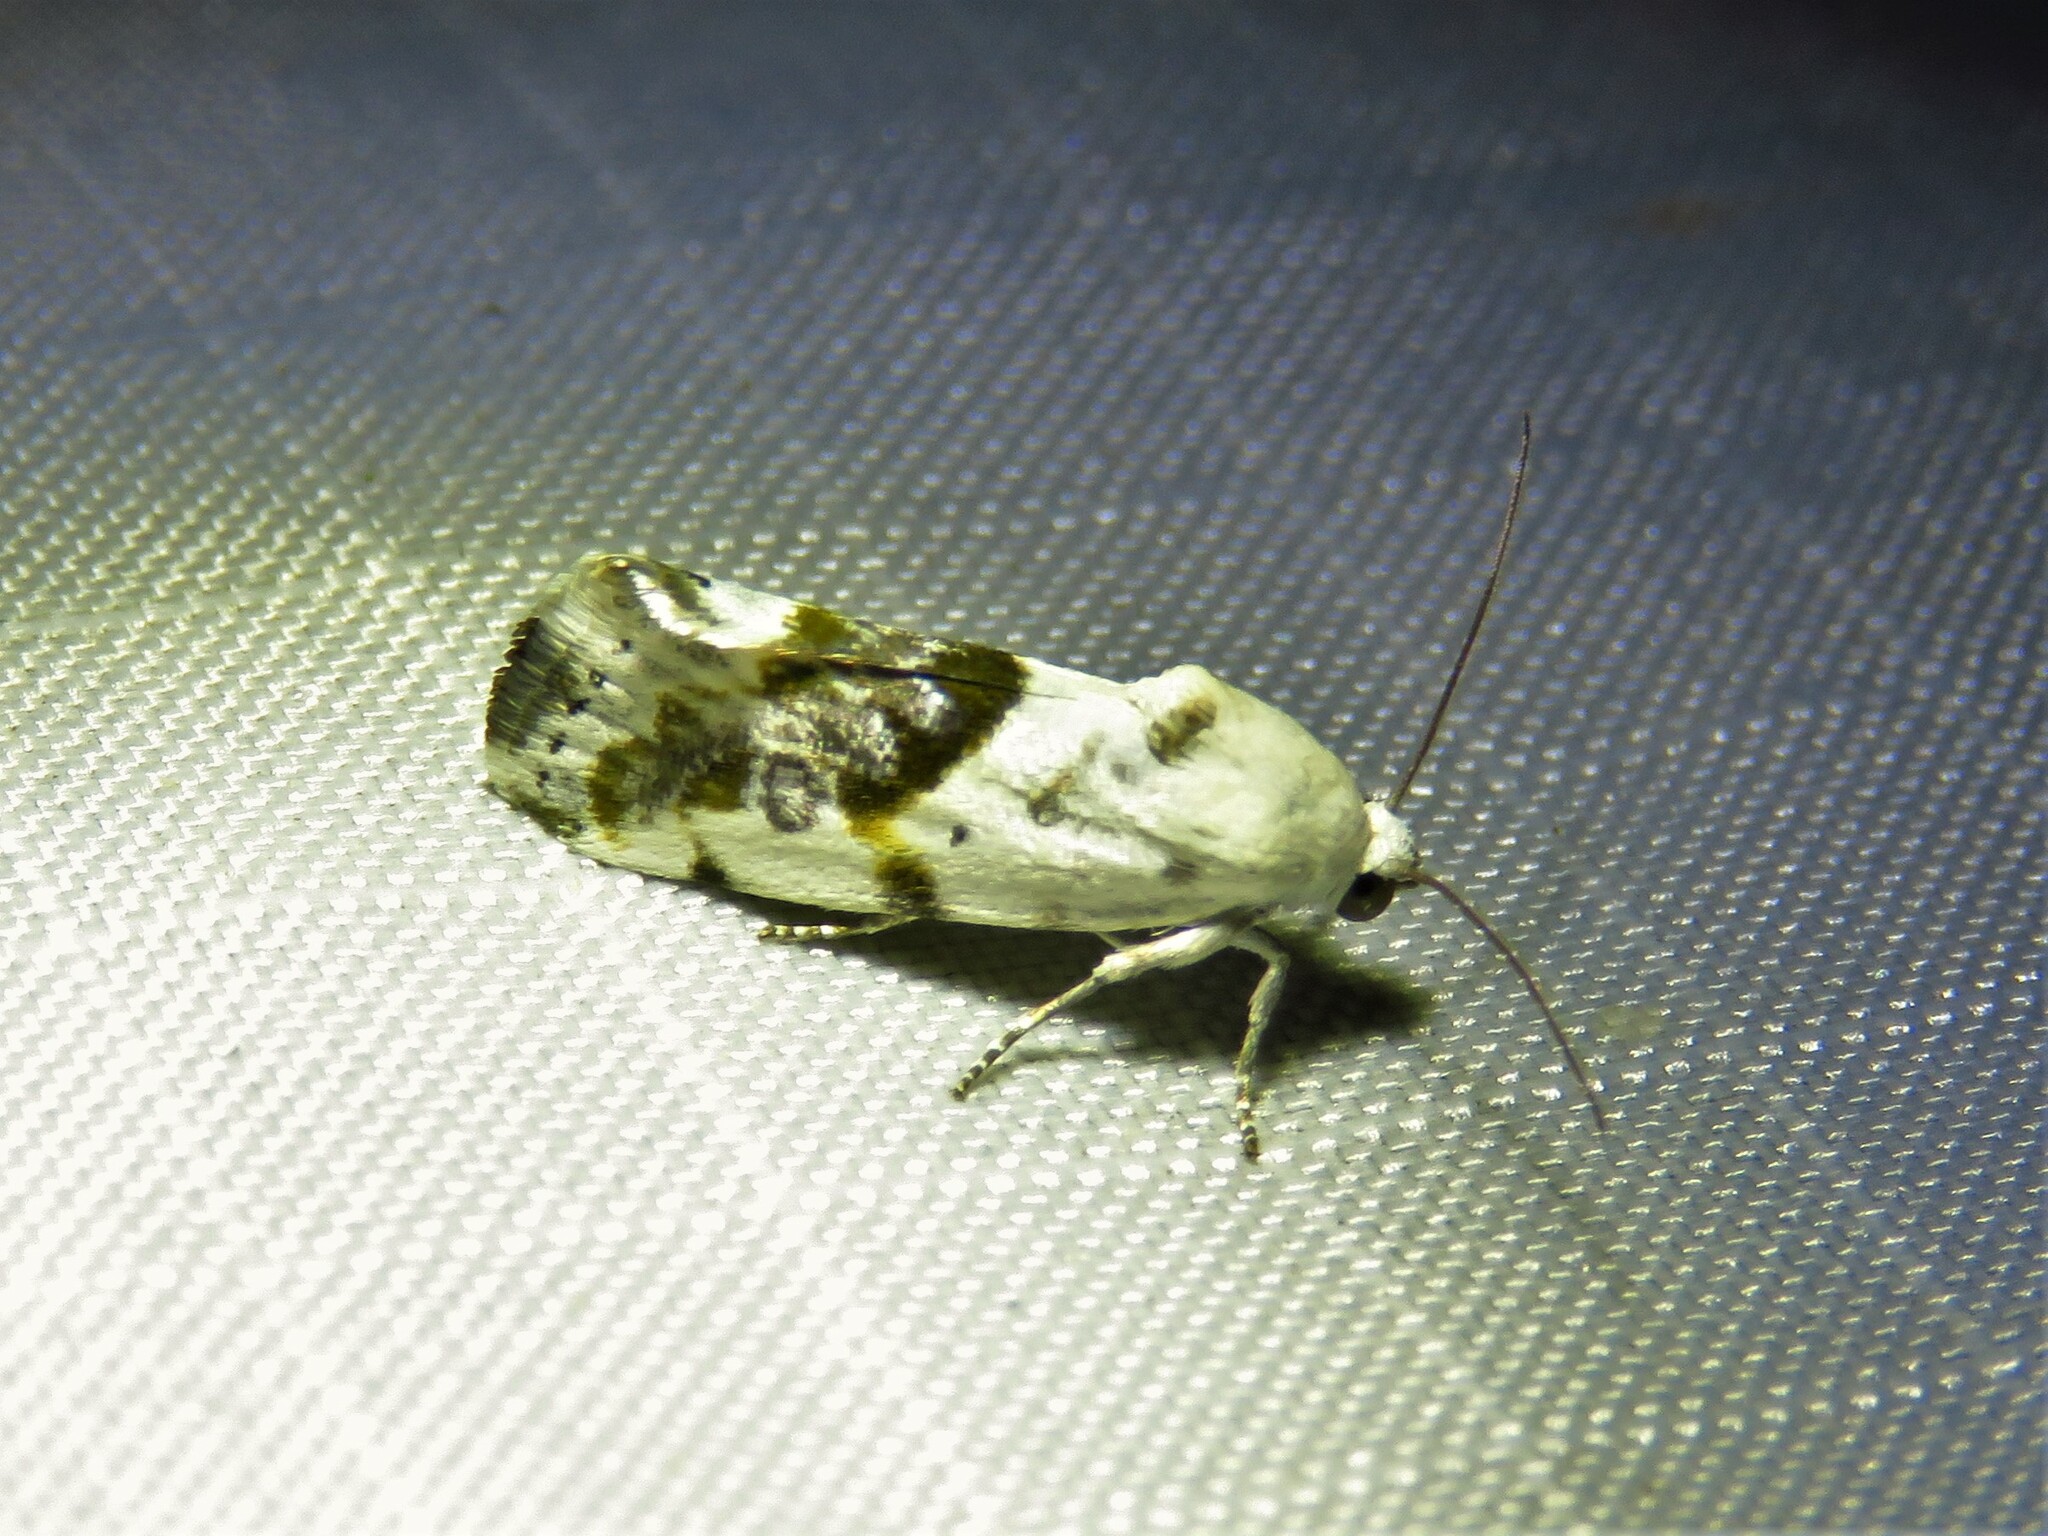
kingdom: Animalia
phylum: Arthropoda
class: Insecta
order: Lepidoptera
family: Noctuidae
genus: Acontia
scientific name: Acontia candefacta
